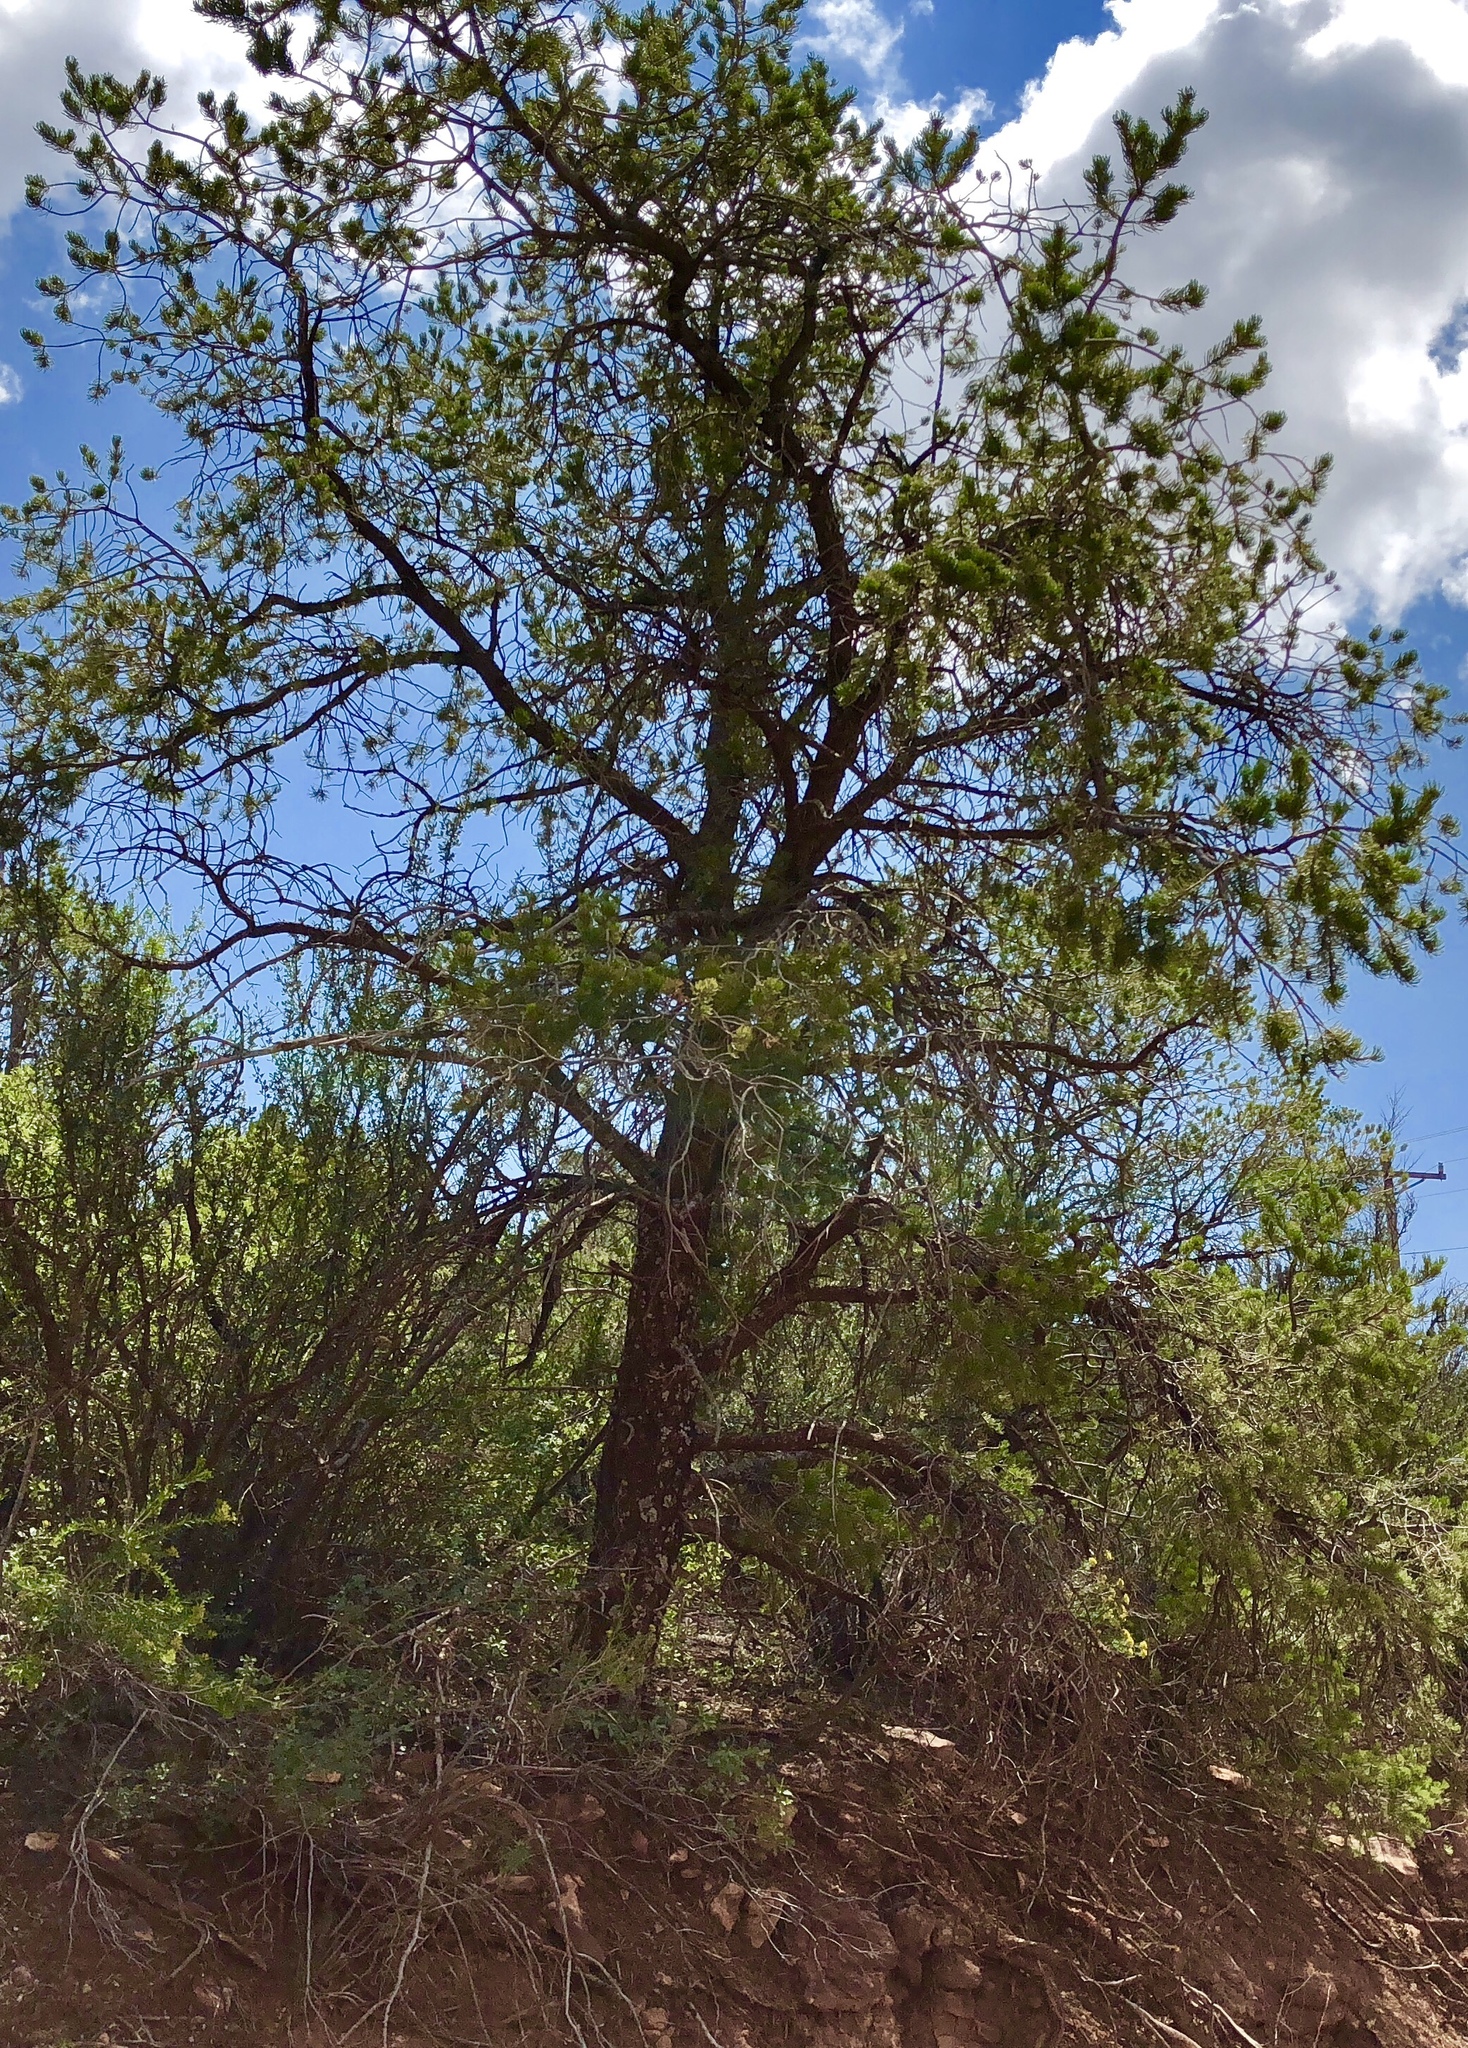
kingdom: Plantae
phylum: Tracheophyta
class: Pinopsida
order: Pinales
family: Pinaceae
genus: Pinus
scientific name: Pinus edulis
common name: Colorado pinyon
